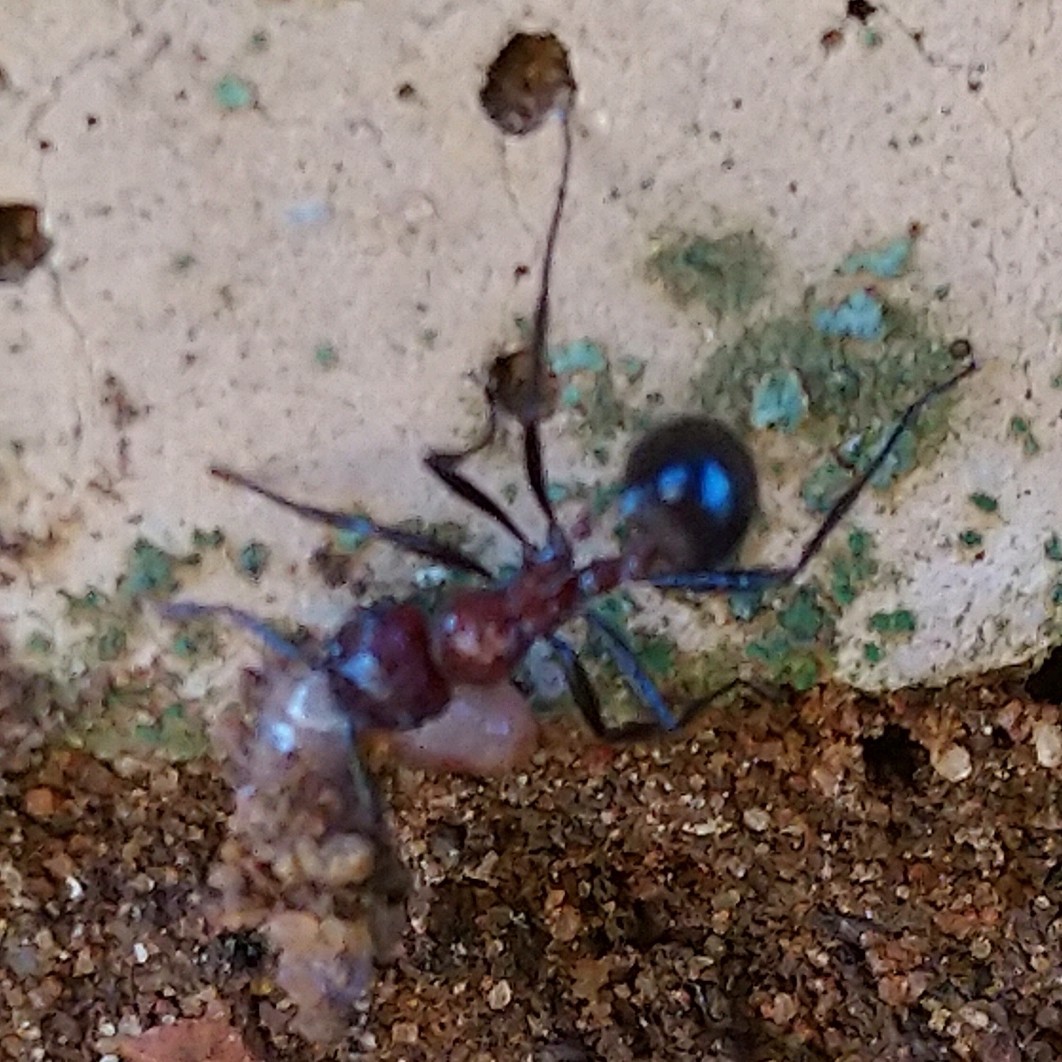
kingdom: Animalia
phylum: Arthropoda
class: Insecta
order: Hymenoptera
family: Formicidae
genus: Myrmicaria
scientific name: Myrmicaria natalensis
